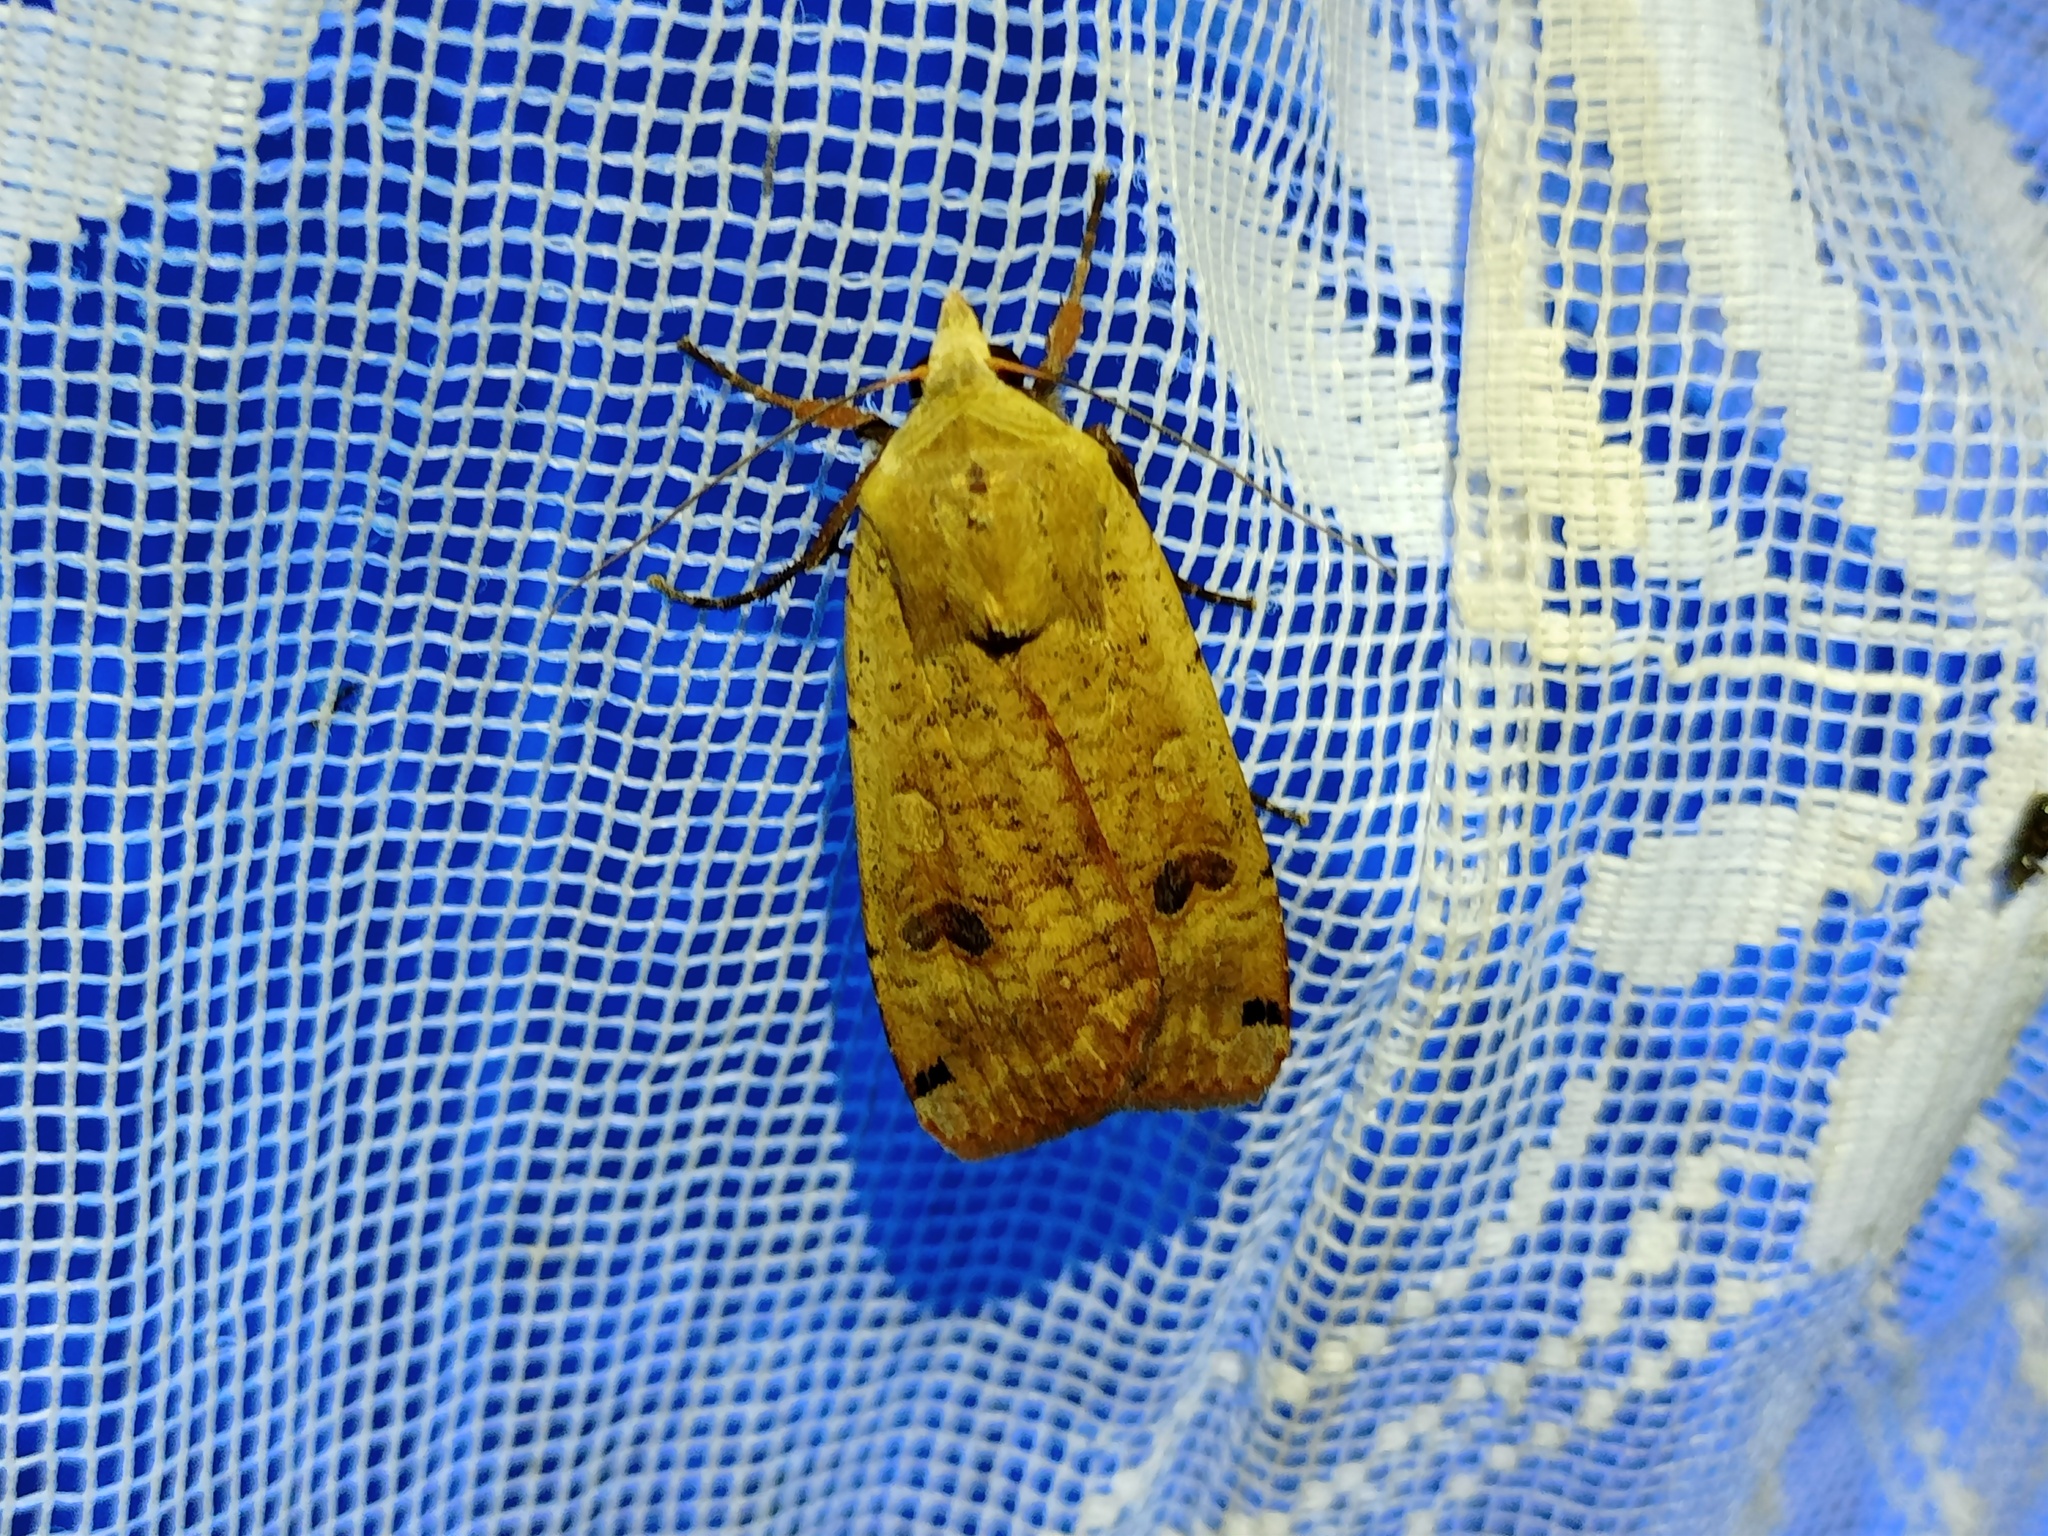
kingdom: Animalia
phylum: Arthropoda
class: Insecta
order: Lepidoptera
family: Noctuidae
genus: Noctua
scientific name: Noctua pronuba
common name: Large yellow underwing
